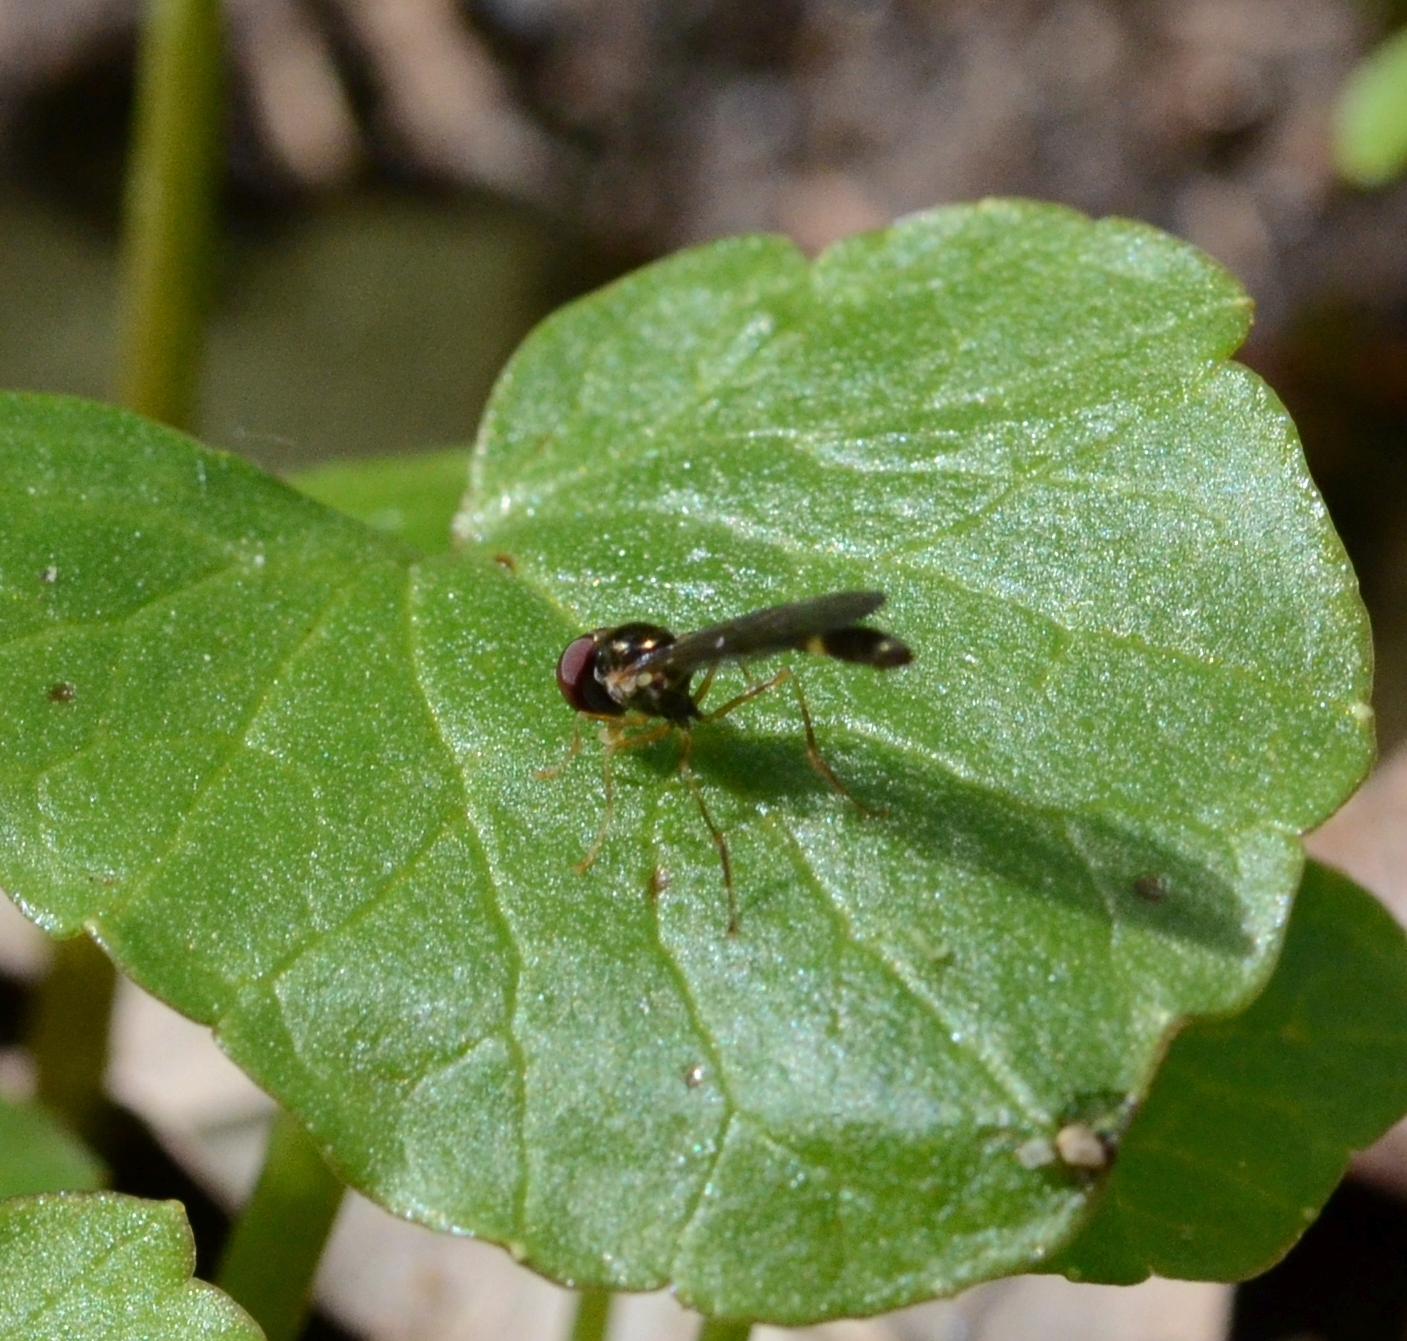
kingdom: Animalia
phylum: Arthropoda
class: Insecta
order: Diptera
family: Syrphidae
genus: Baccha
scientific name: Baccha elongata
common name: Common dainty
